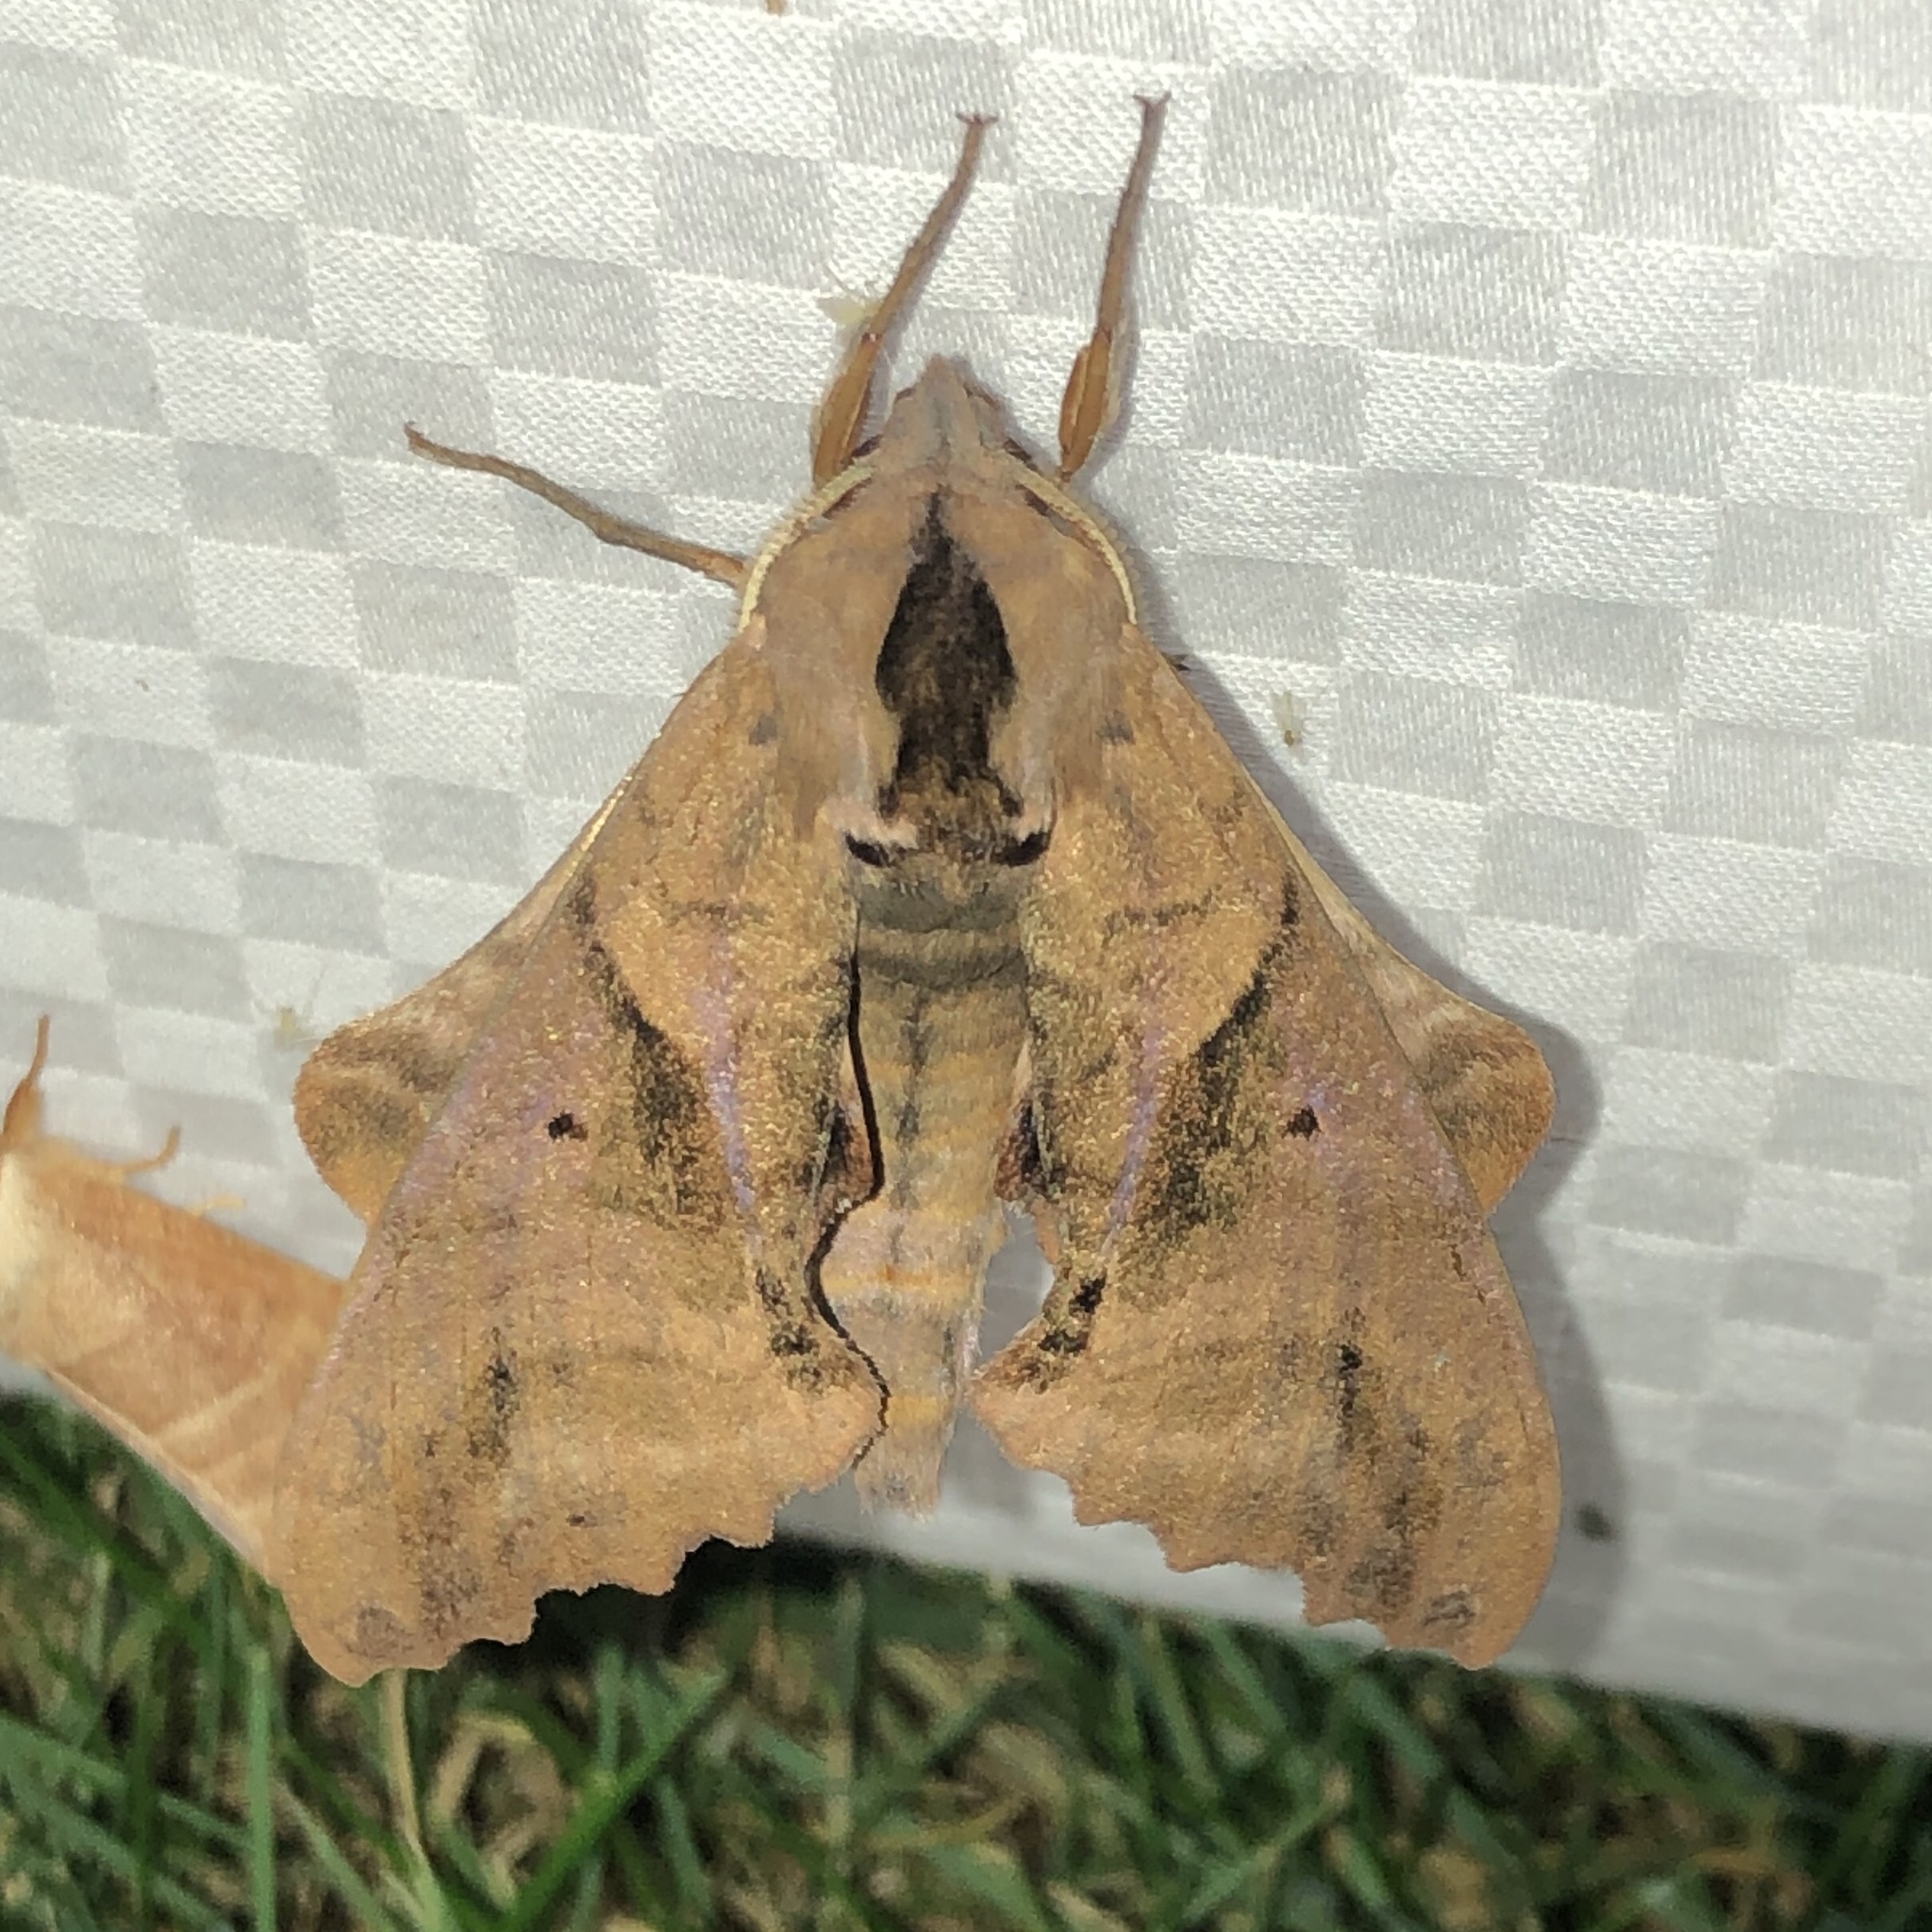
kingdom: Animalia
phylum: Arthropoda
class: Insecta
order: Lepidoptera
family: Sphingidae
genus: Paonias
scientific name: Paonias excaecata
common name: Blind-eyed sphinx
